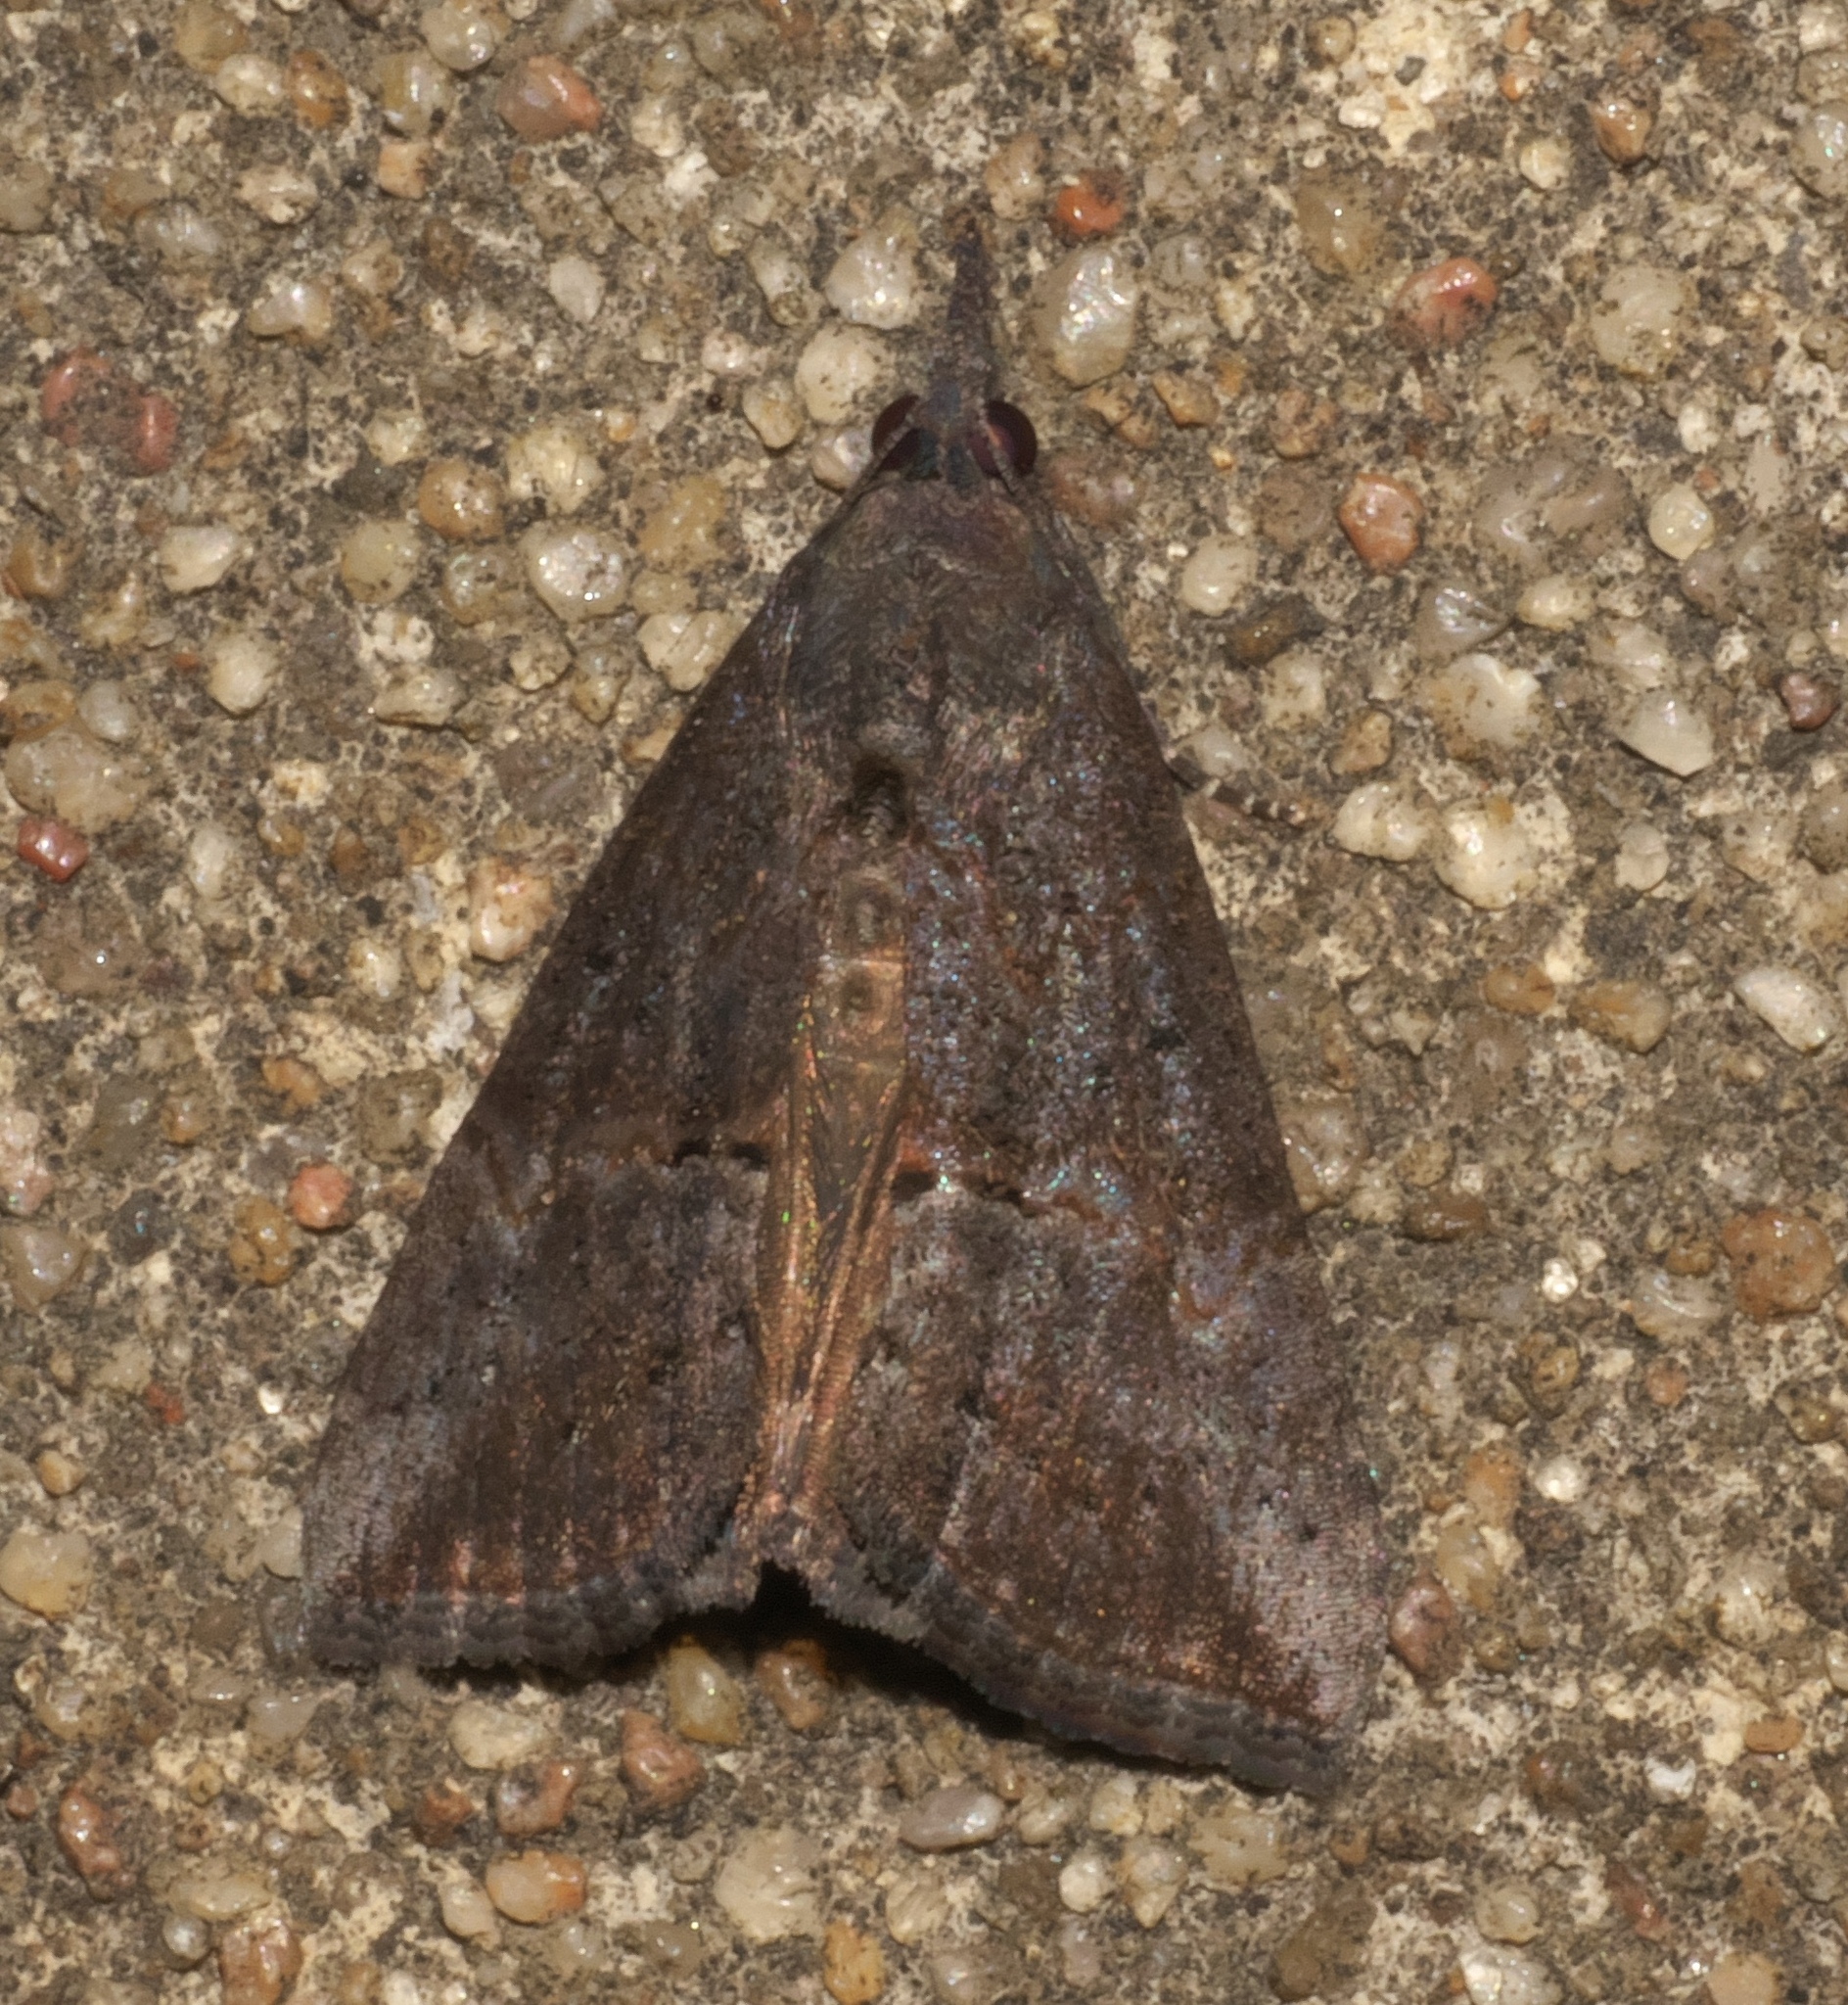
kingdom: Animalia
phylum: Arthropoda
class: Insecta
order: Lepidoptera
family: Erebidae
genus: Hypena
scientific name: Hypena scabra
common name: Green cloverworm
